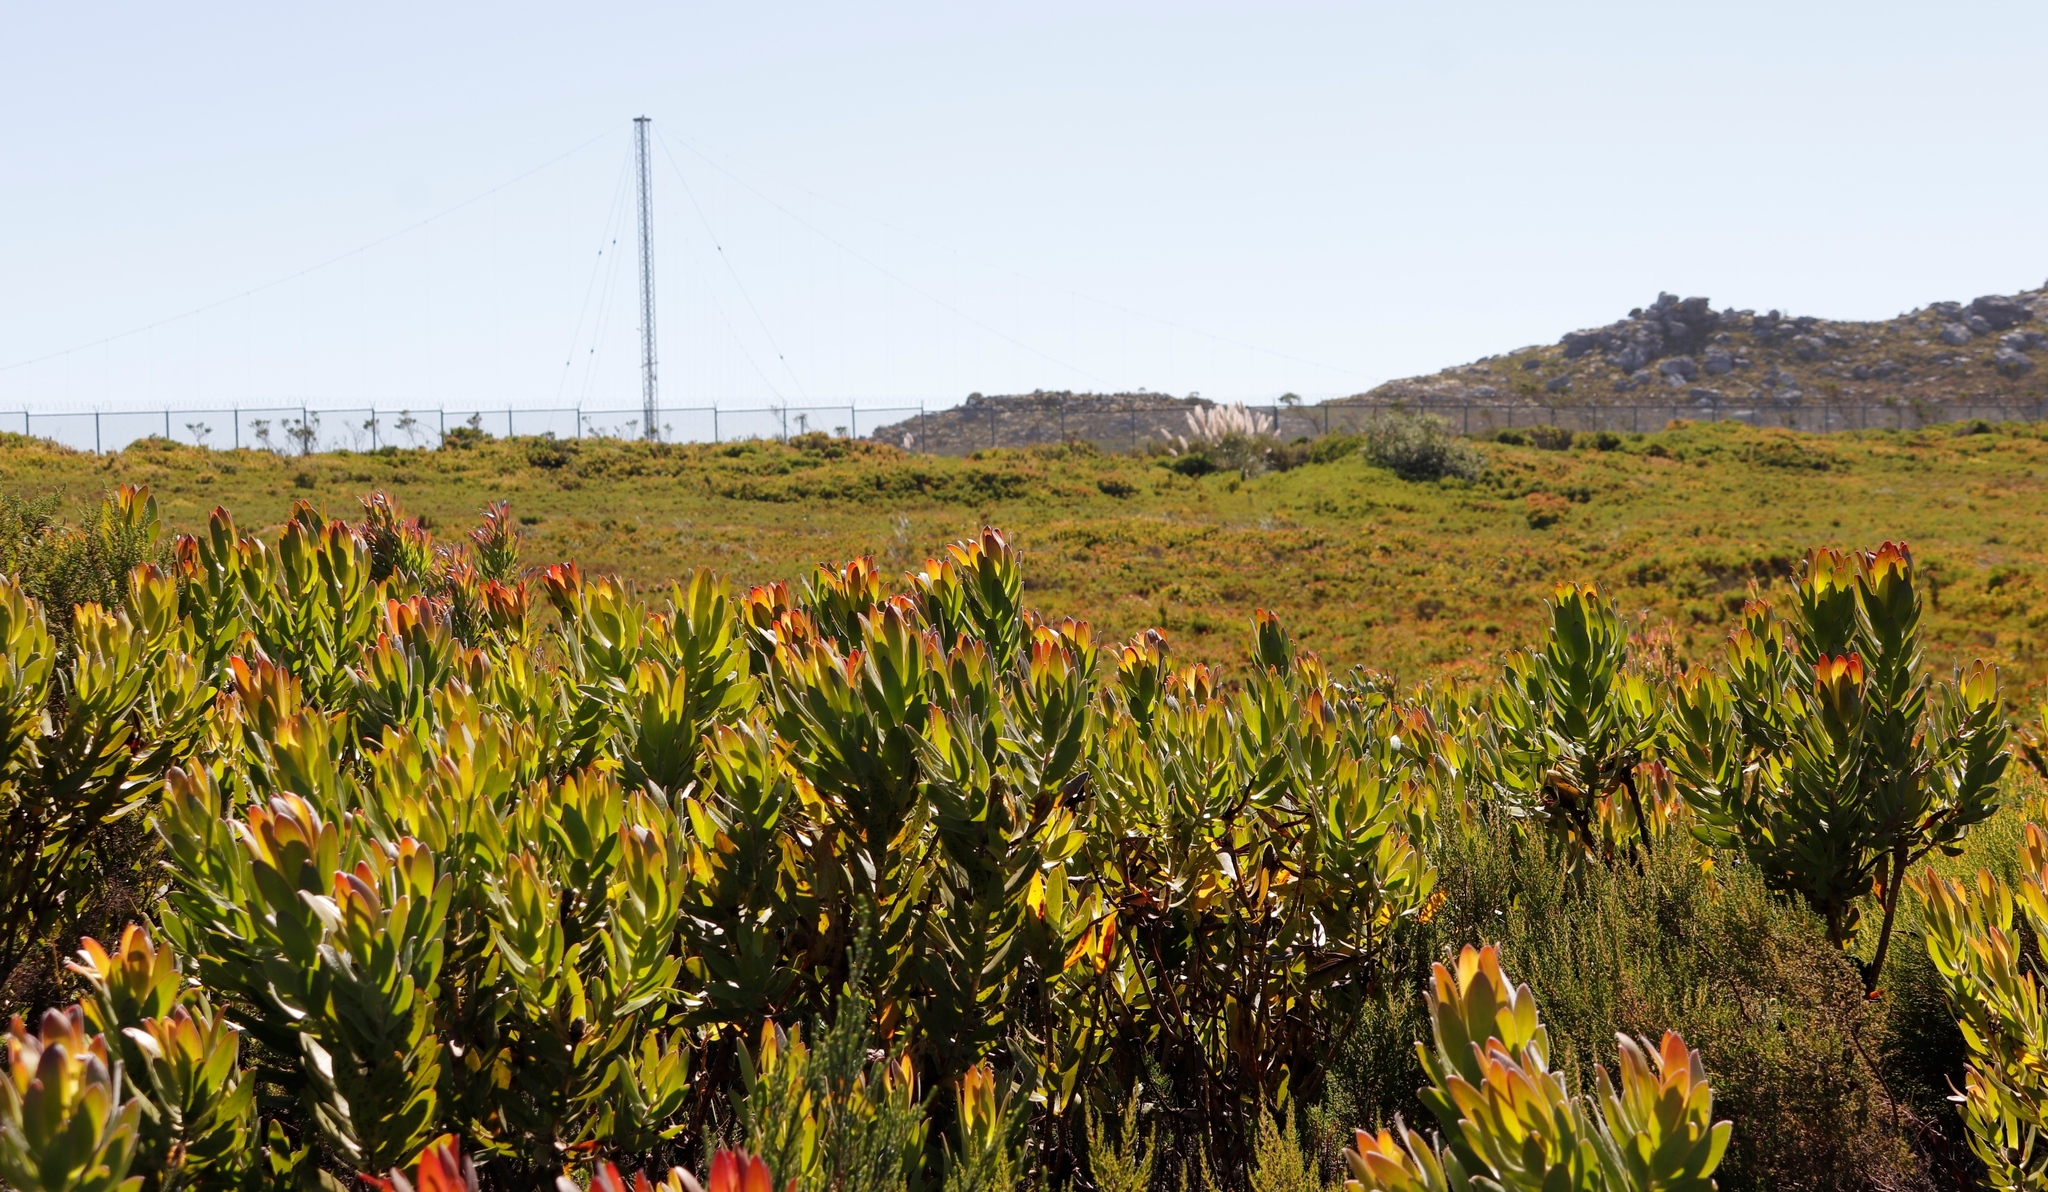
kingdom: Plantae
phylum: Tracheophyta
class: Liliopsida
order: Poales
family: Poaceae
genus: Cortaderia
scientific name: Cortaderia selloana
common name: Uruguayan pampas grass
